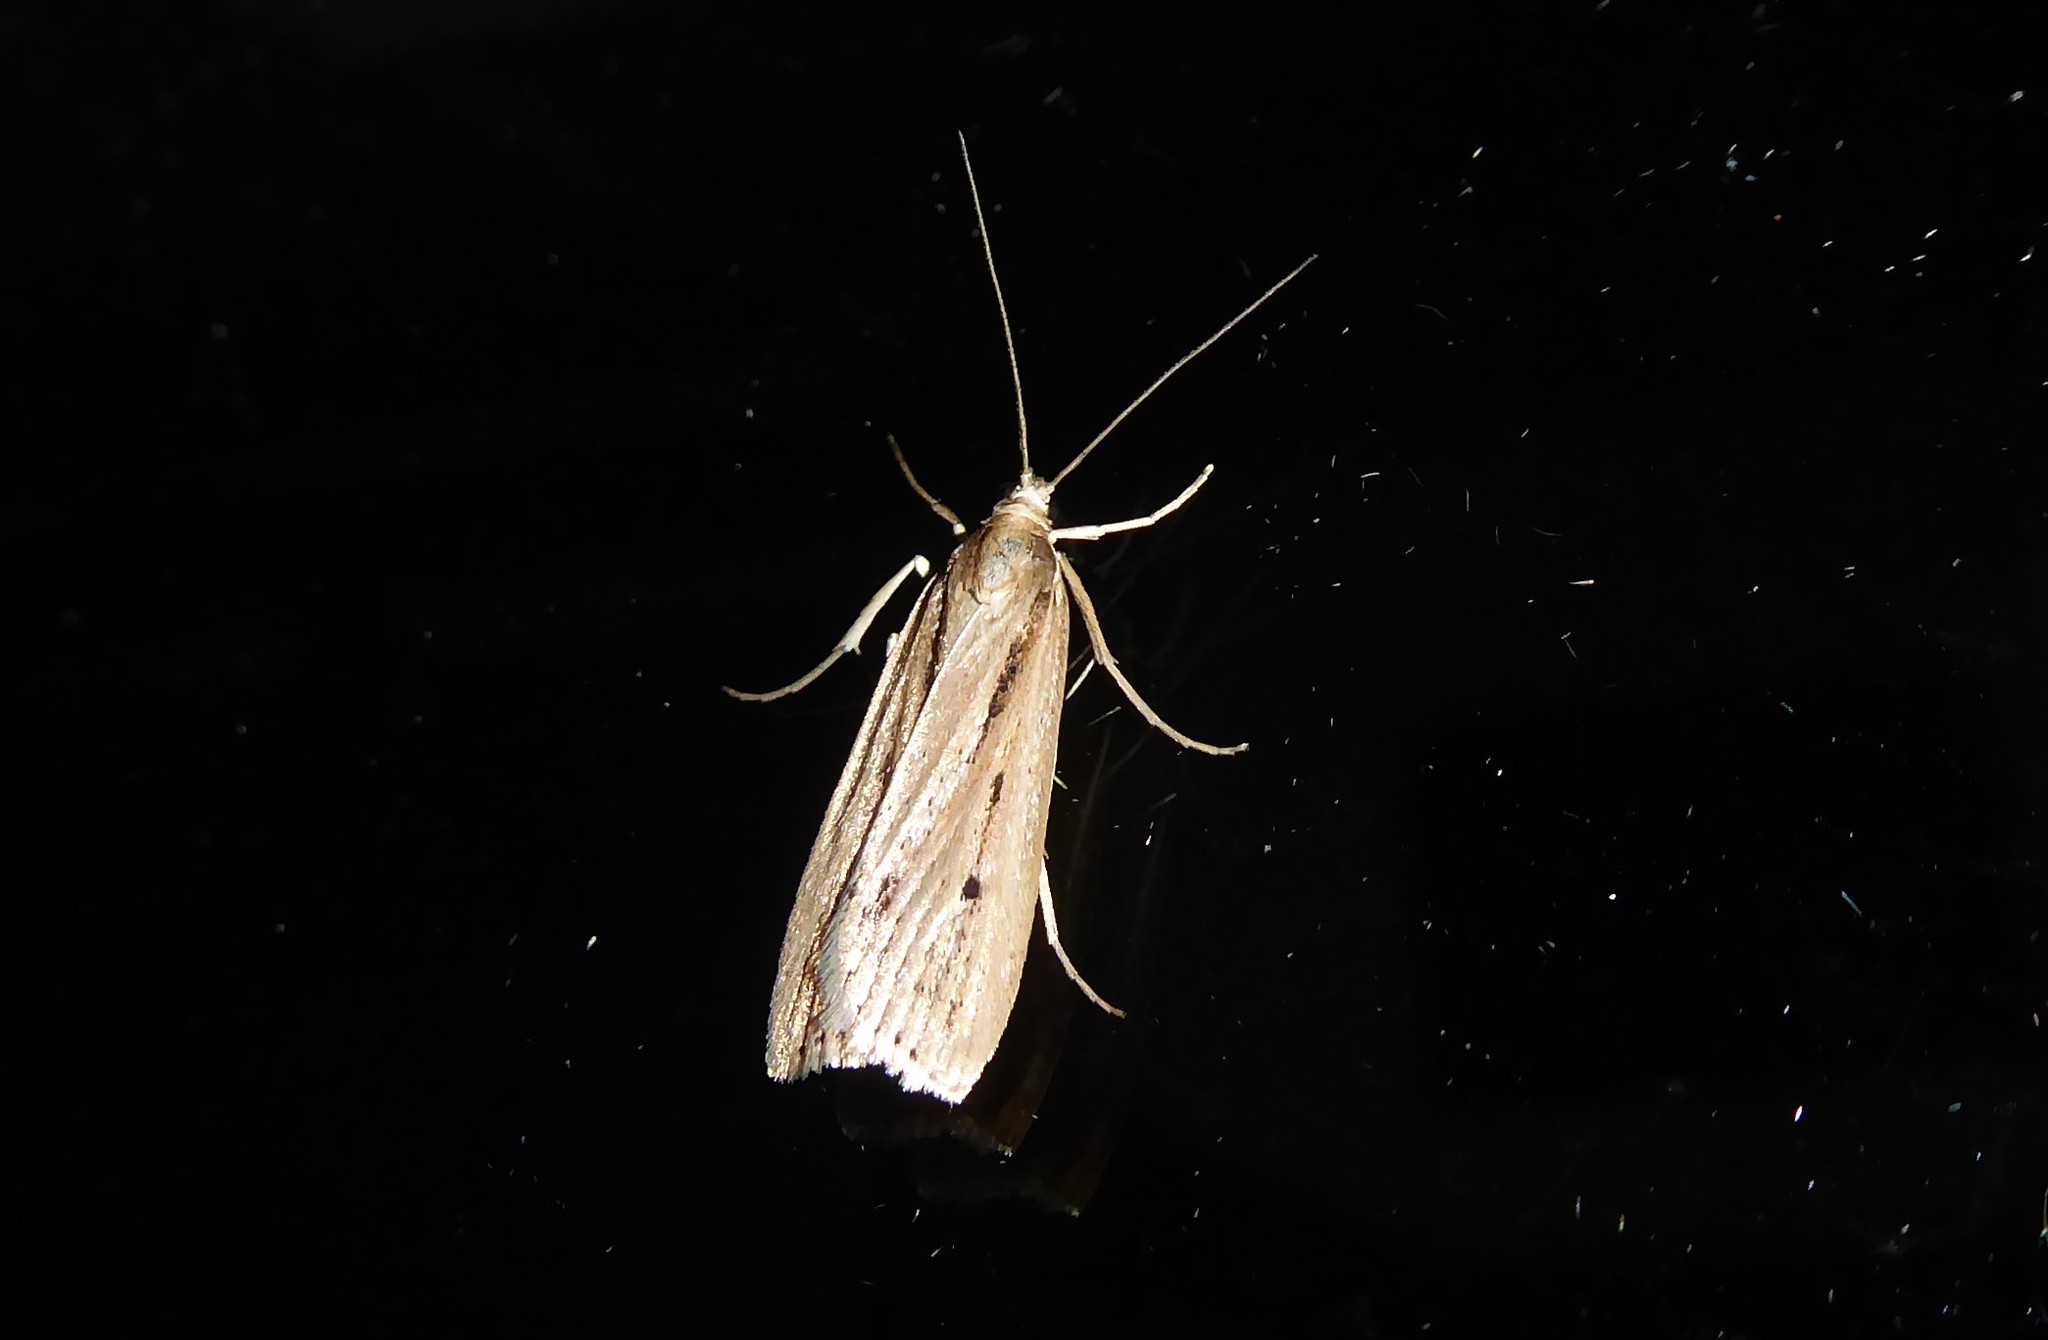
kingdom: Animalia
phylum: Arthropoda
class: Insecta
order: Lepidoptera
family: Crambidae
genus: Eudonia
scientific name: Eudonia sabulosella
